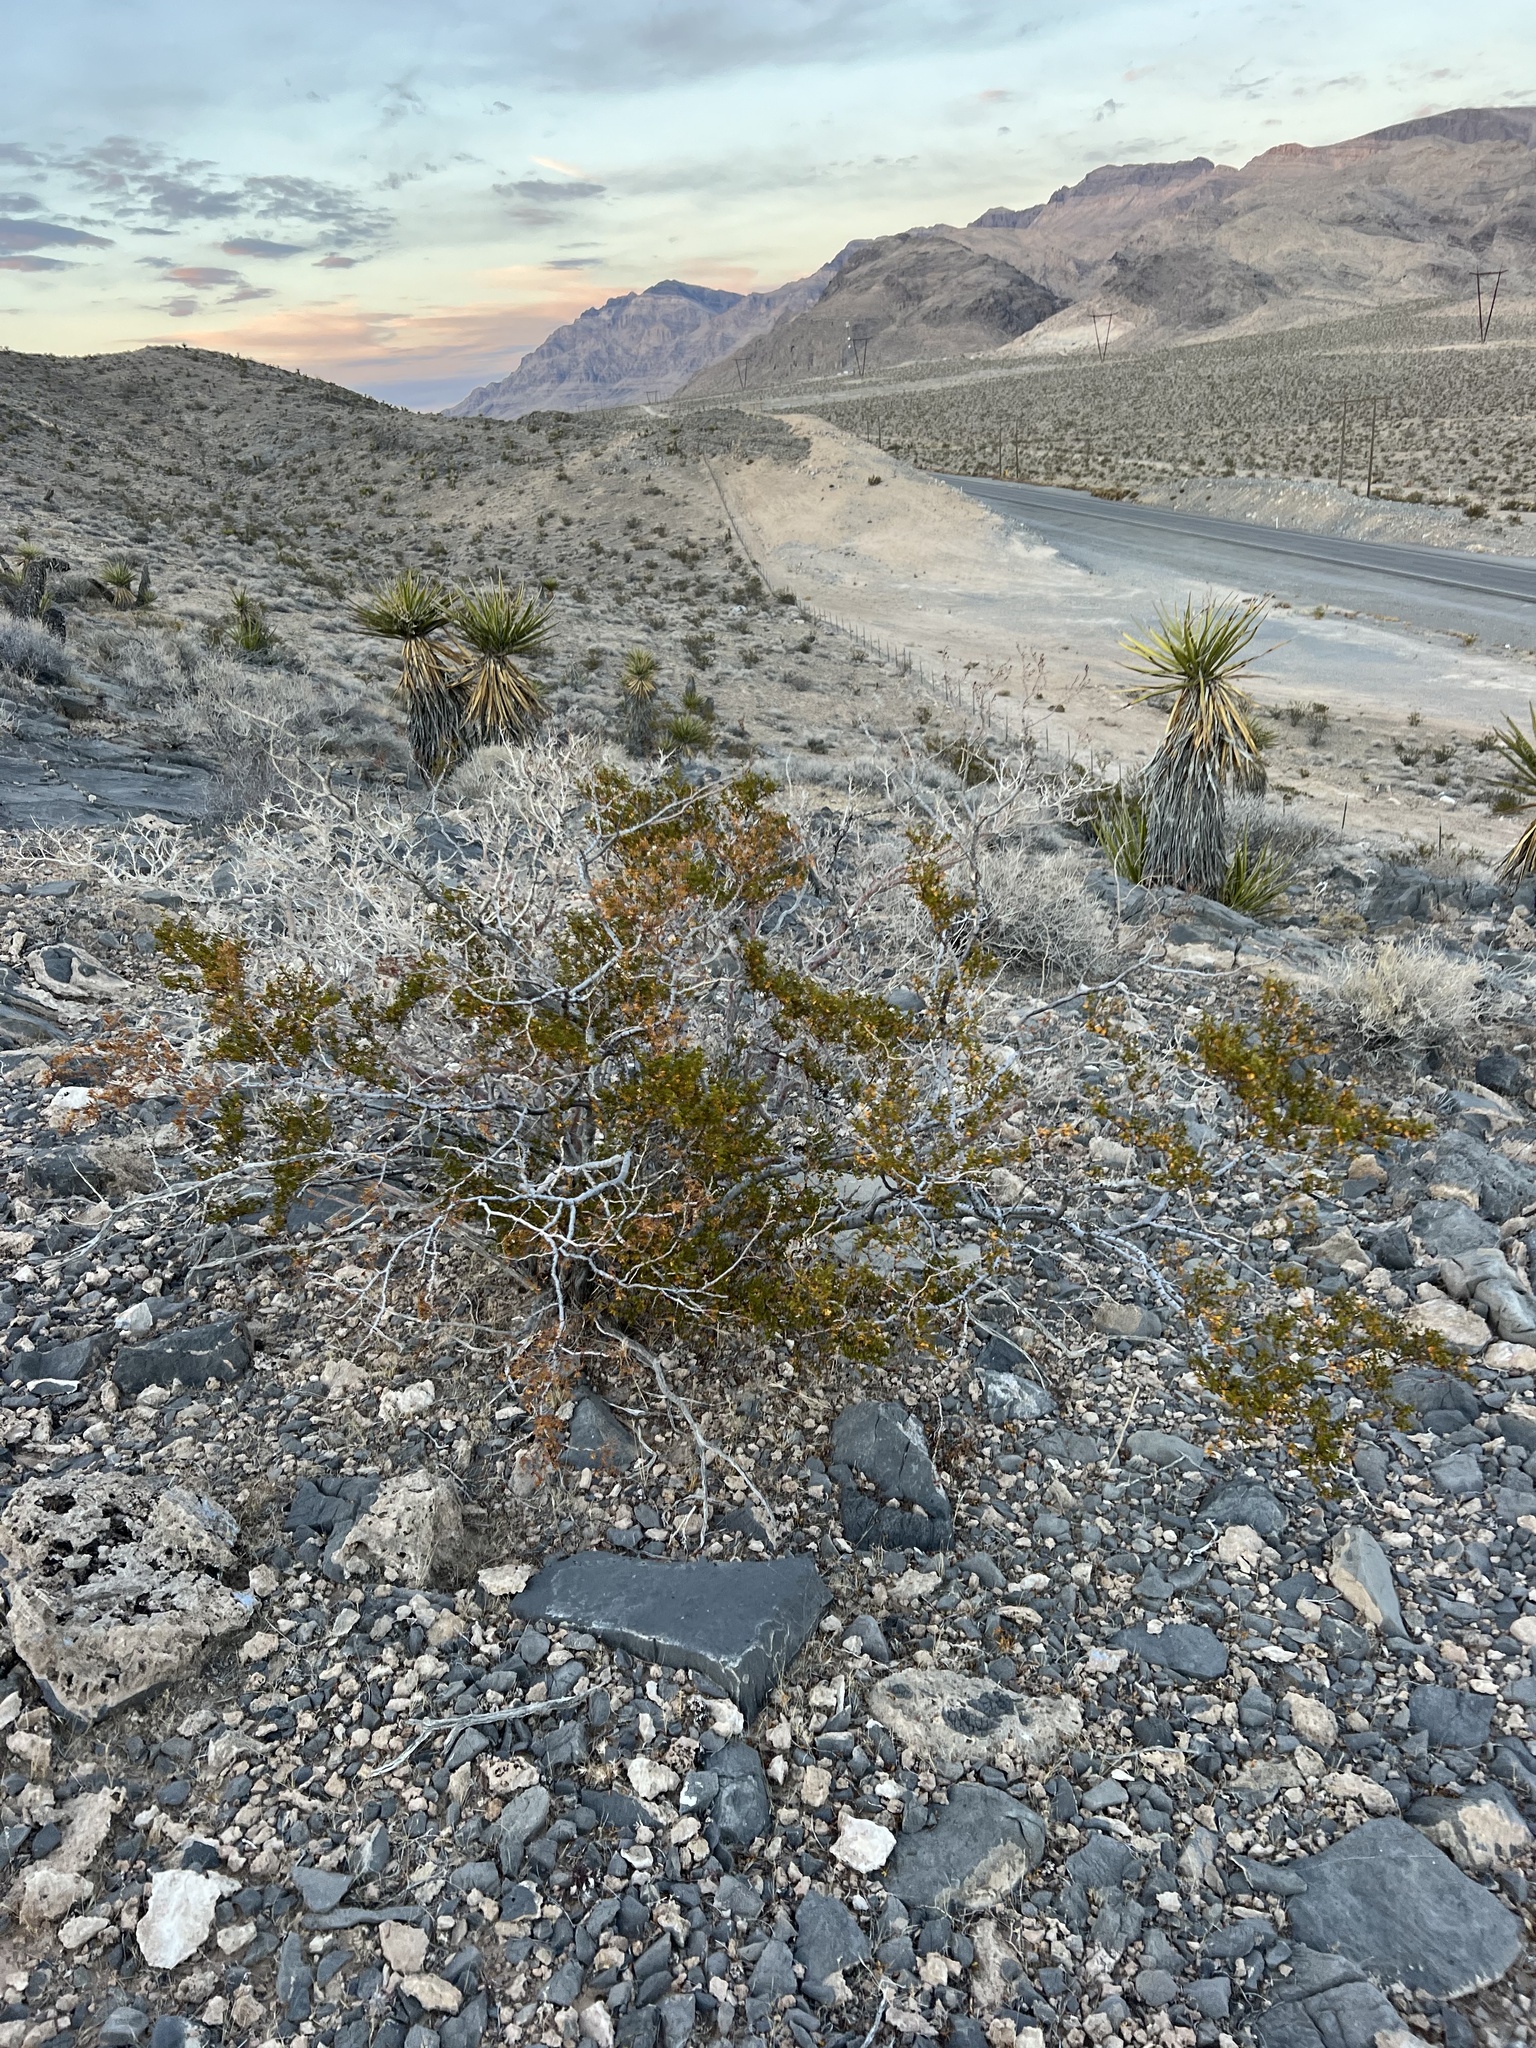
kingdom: Plantae
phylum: Tracheophyta
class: Magnoliopsida
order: Zygophyllales
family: Zygophyllaceae
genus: Larrea
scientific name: Larrea tridentata
